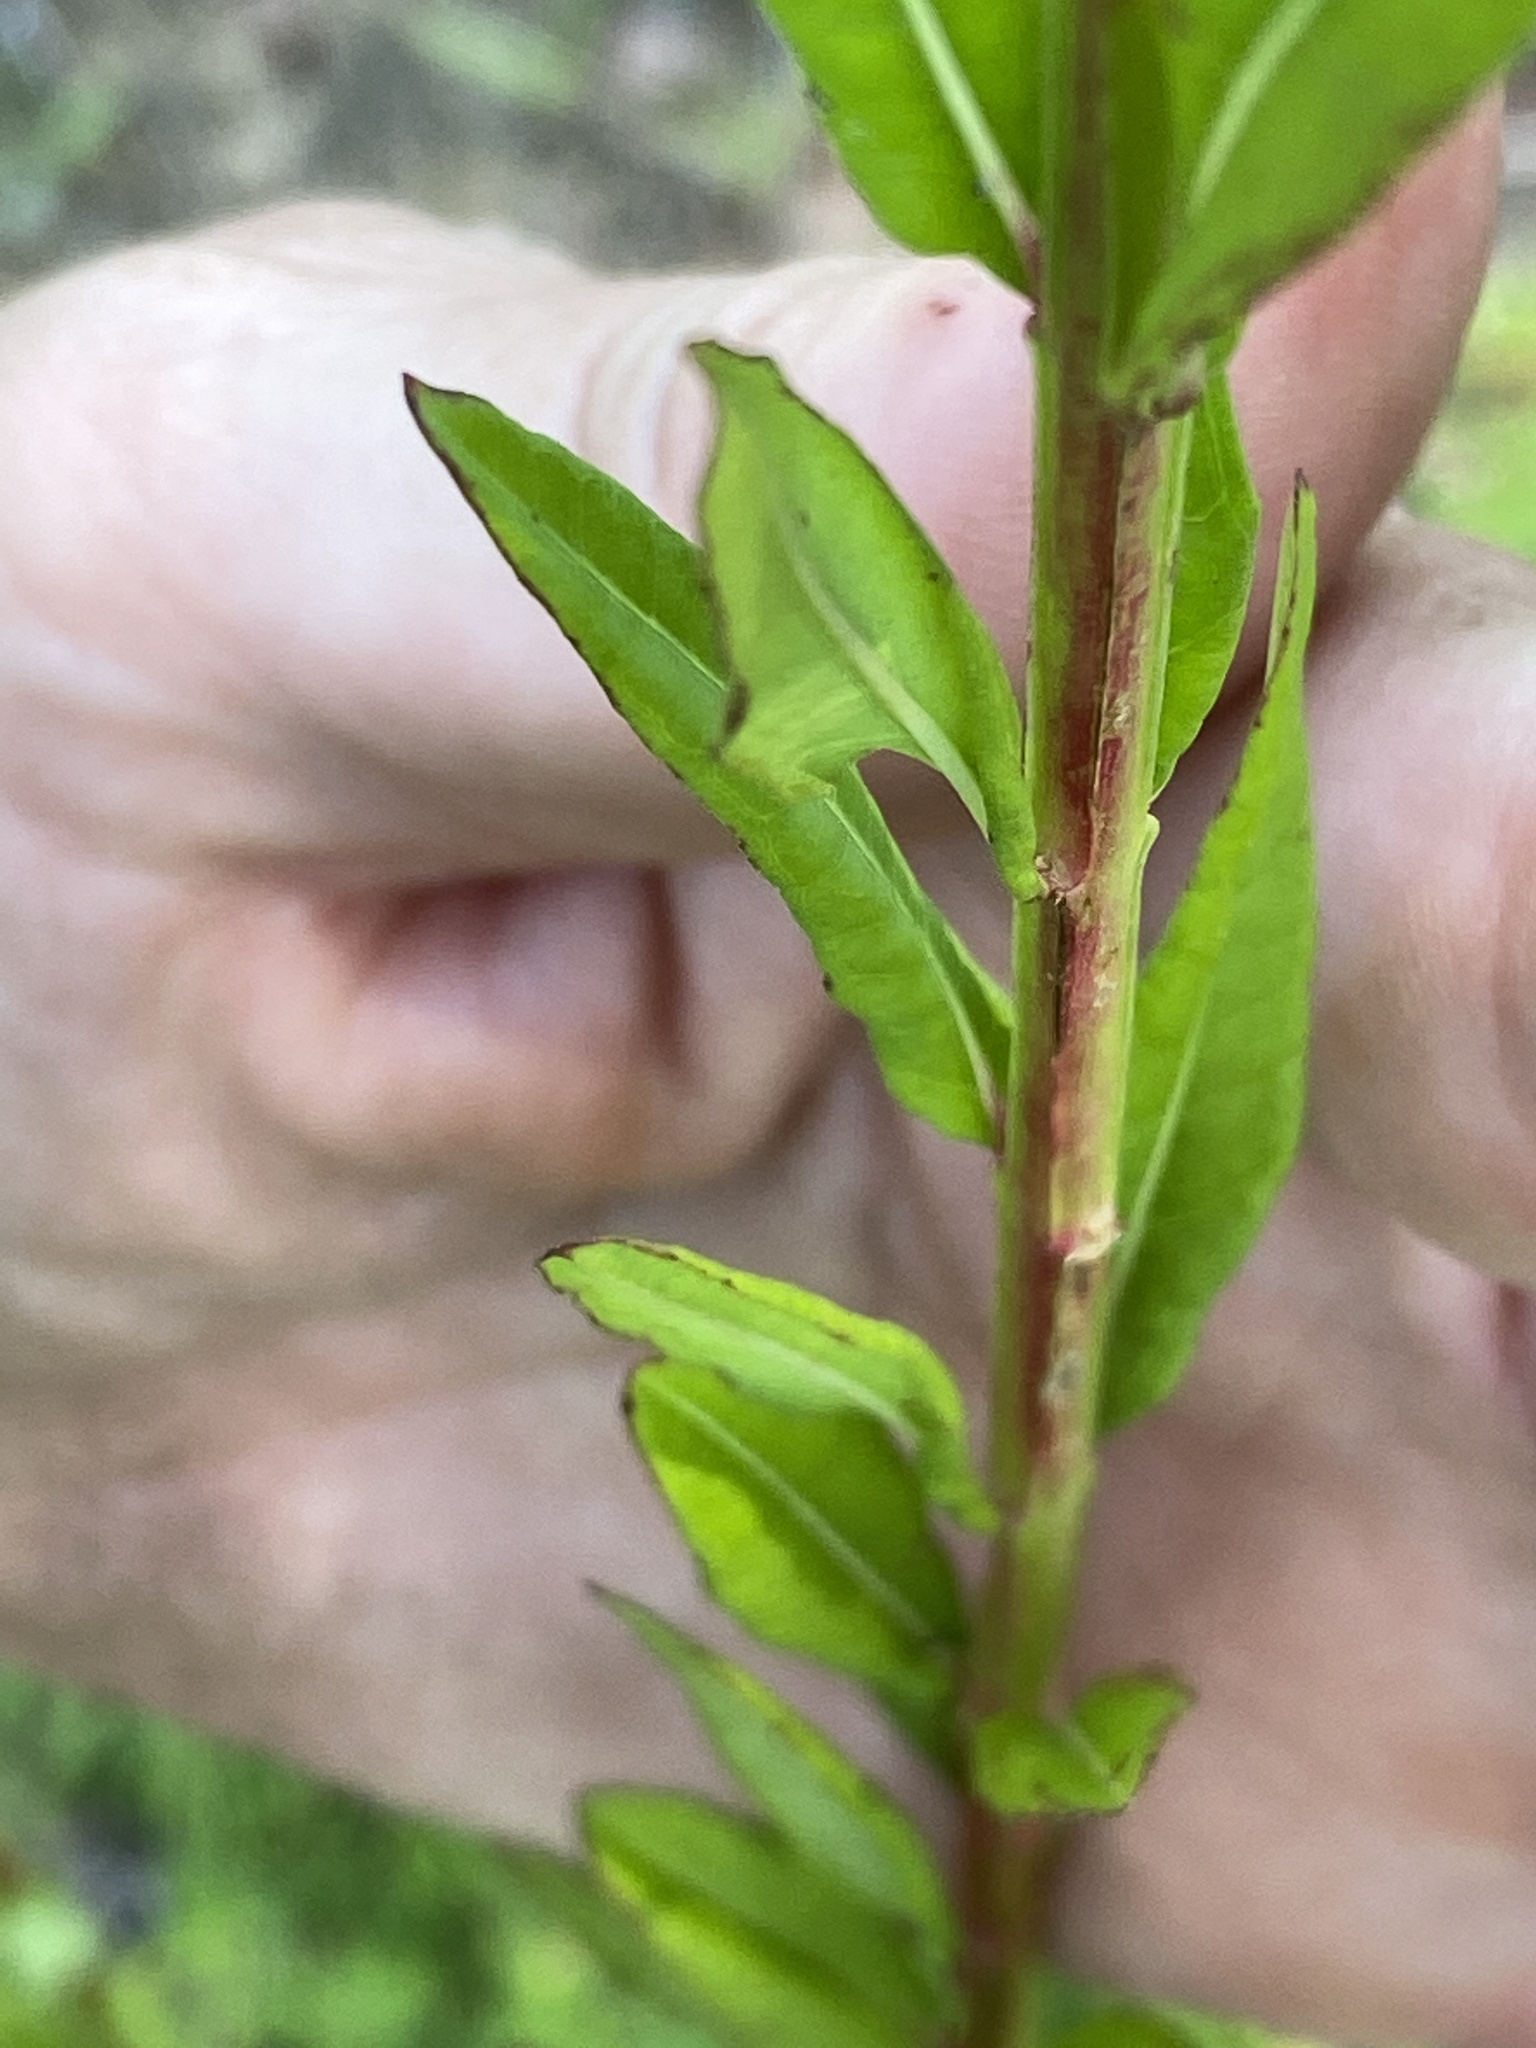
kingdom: Plantae
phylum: Tracheophyta
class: Magnoliopsida
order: Myrtales
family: Lythraceae
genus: Lythrum
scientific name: Lythrum alatum
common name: Winged loosestrife
